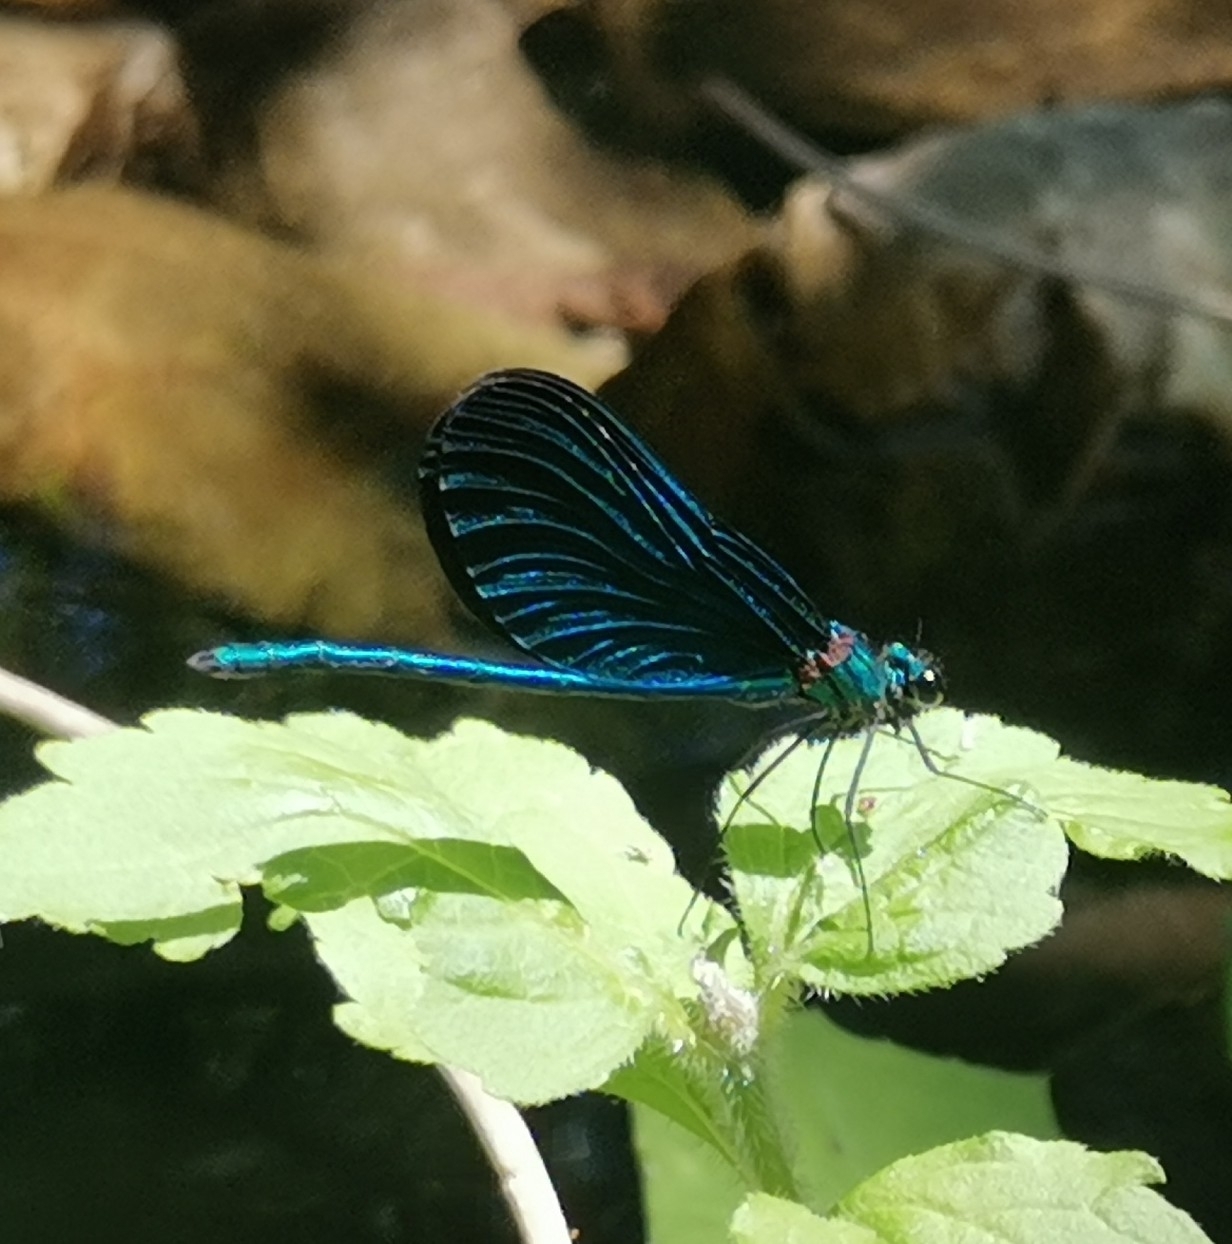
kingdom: Animalia
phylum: Arthropoda
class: Insecta
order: Odonata
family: Calopterygidae
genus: Calopteryx
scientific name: Calopteryx virgo
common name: Beautiful demoiselle
